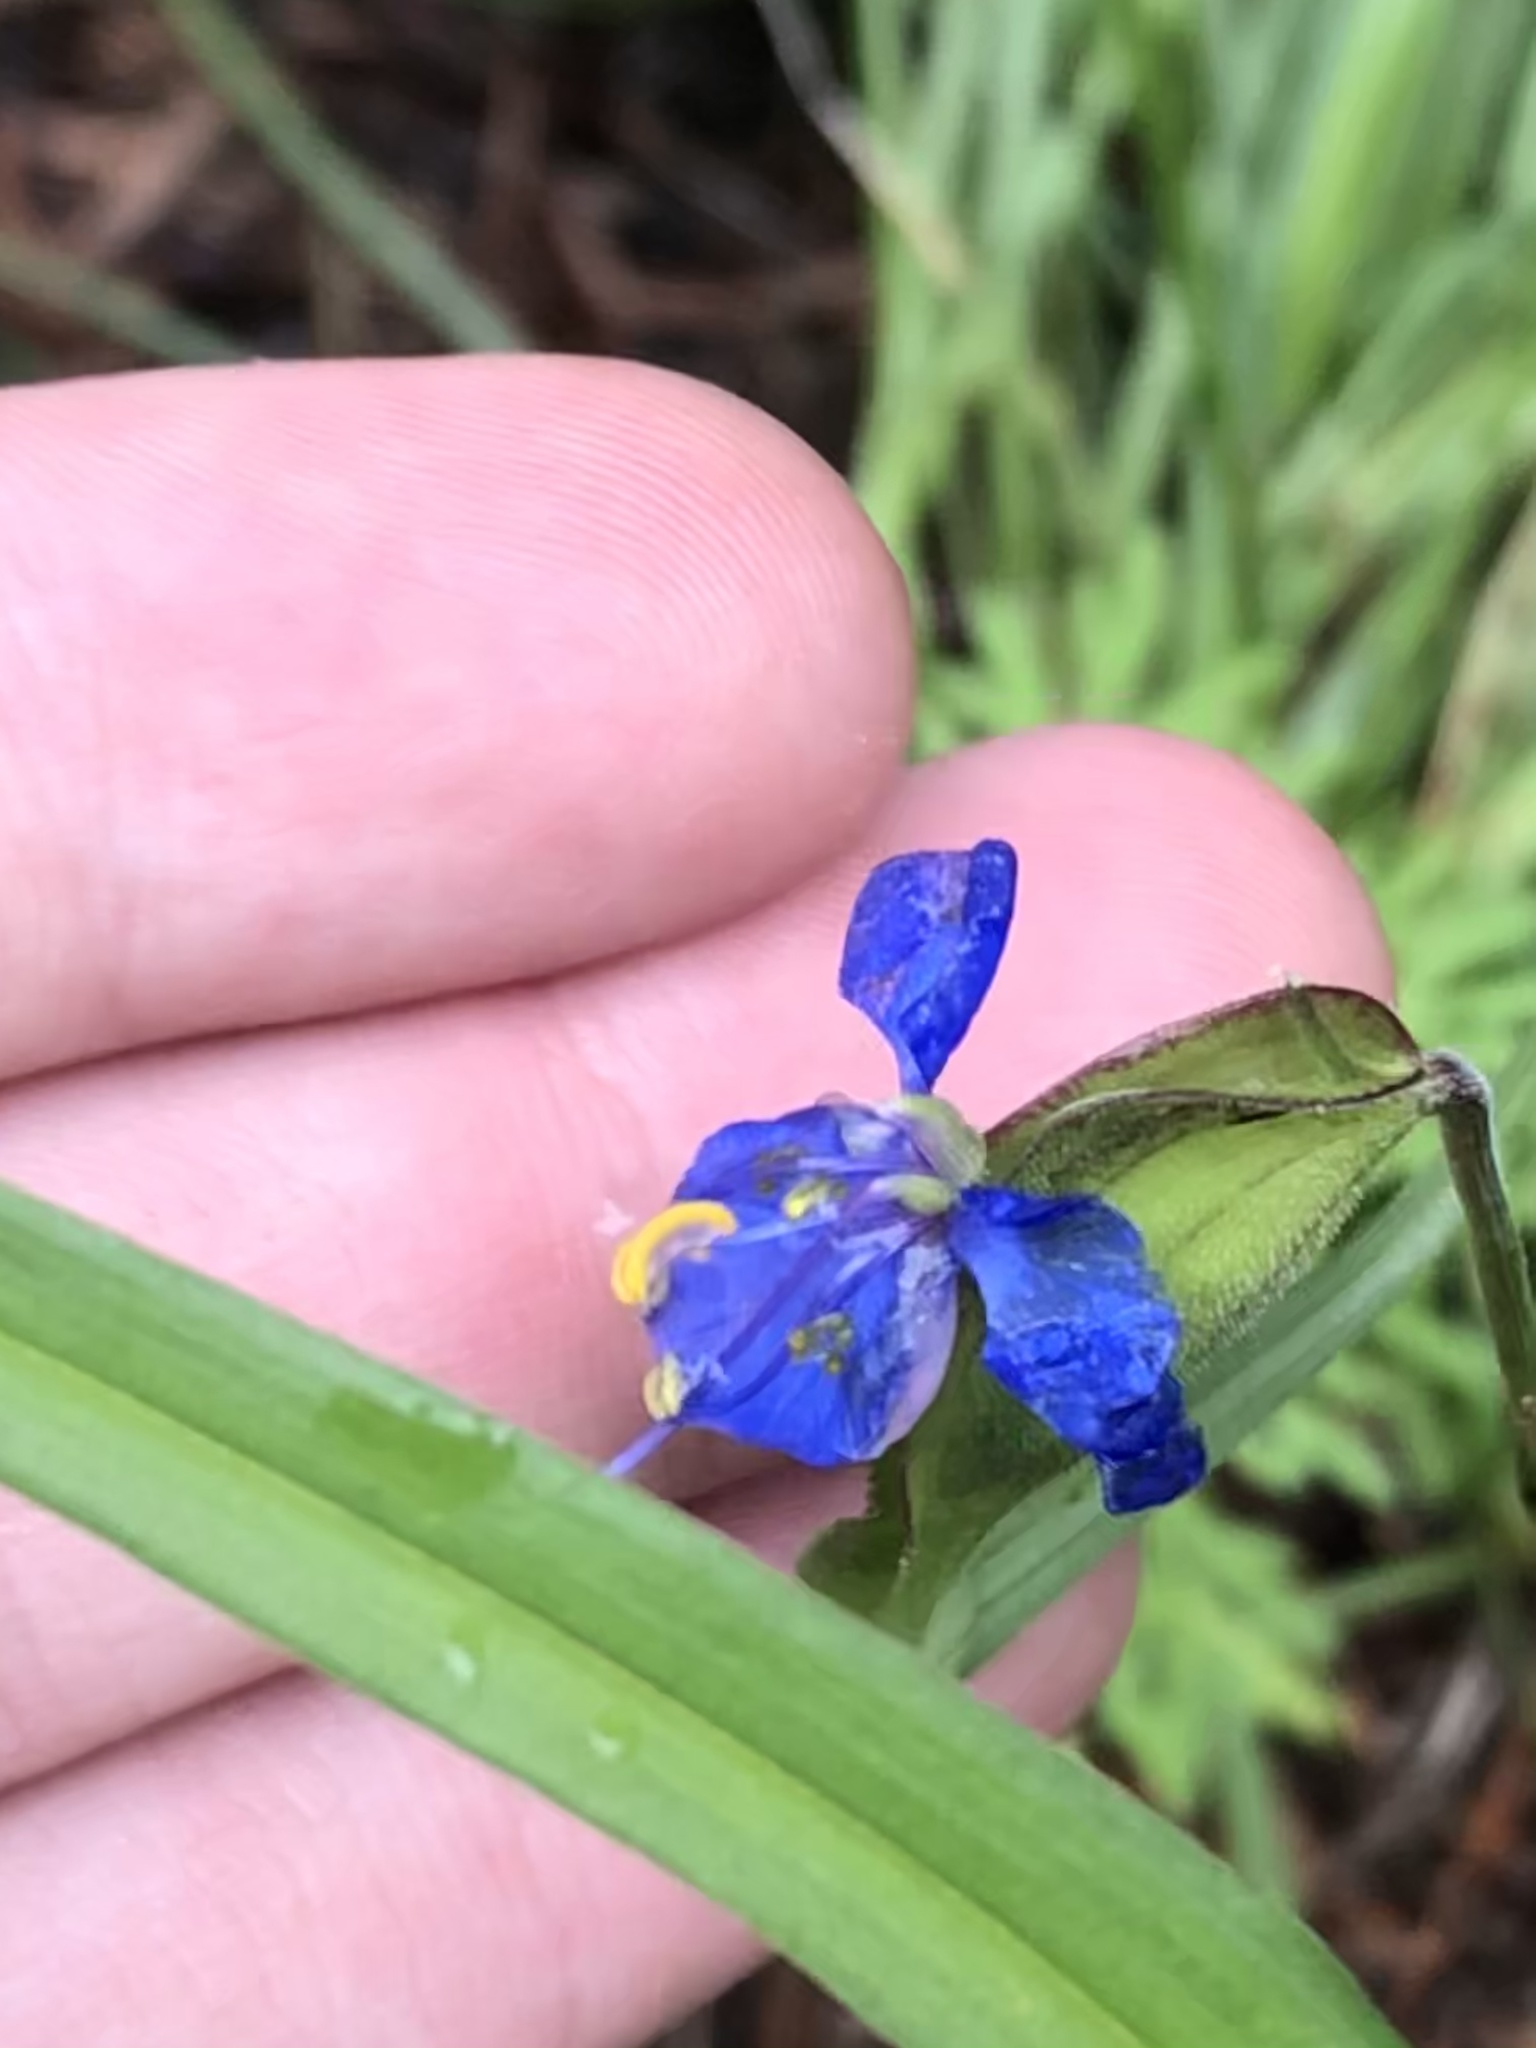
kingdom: Plantae
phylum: Tracheophyta
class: Liliopsida
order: Commelinales
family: Commelinaceae
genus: Commelina
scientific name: Commelina dianthifolia
